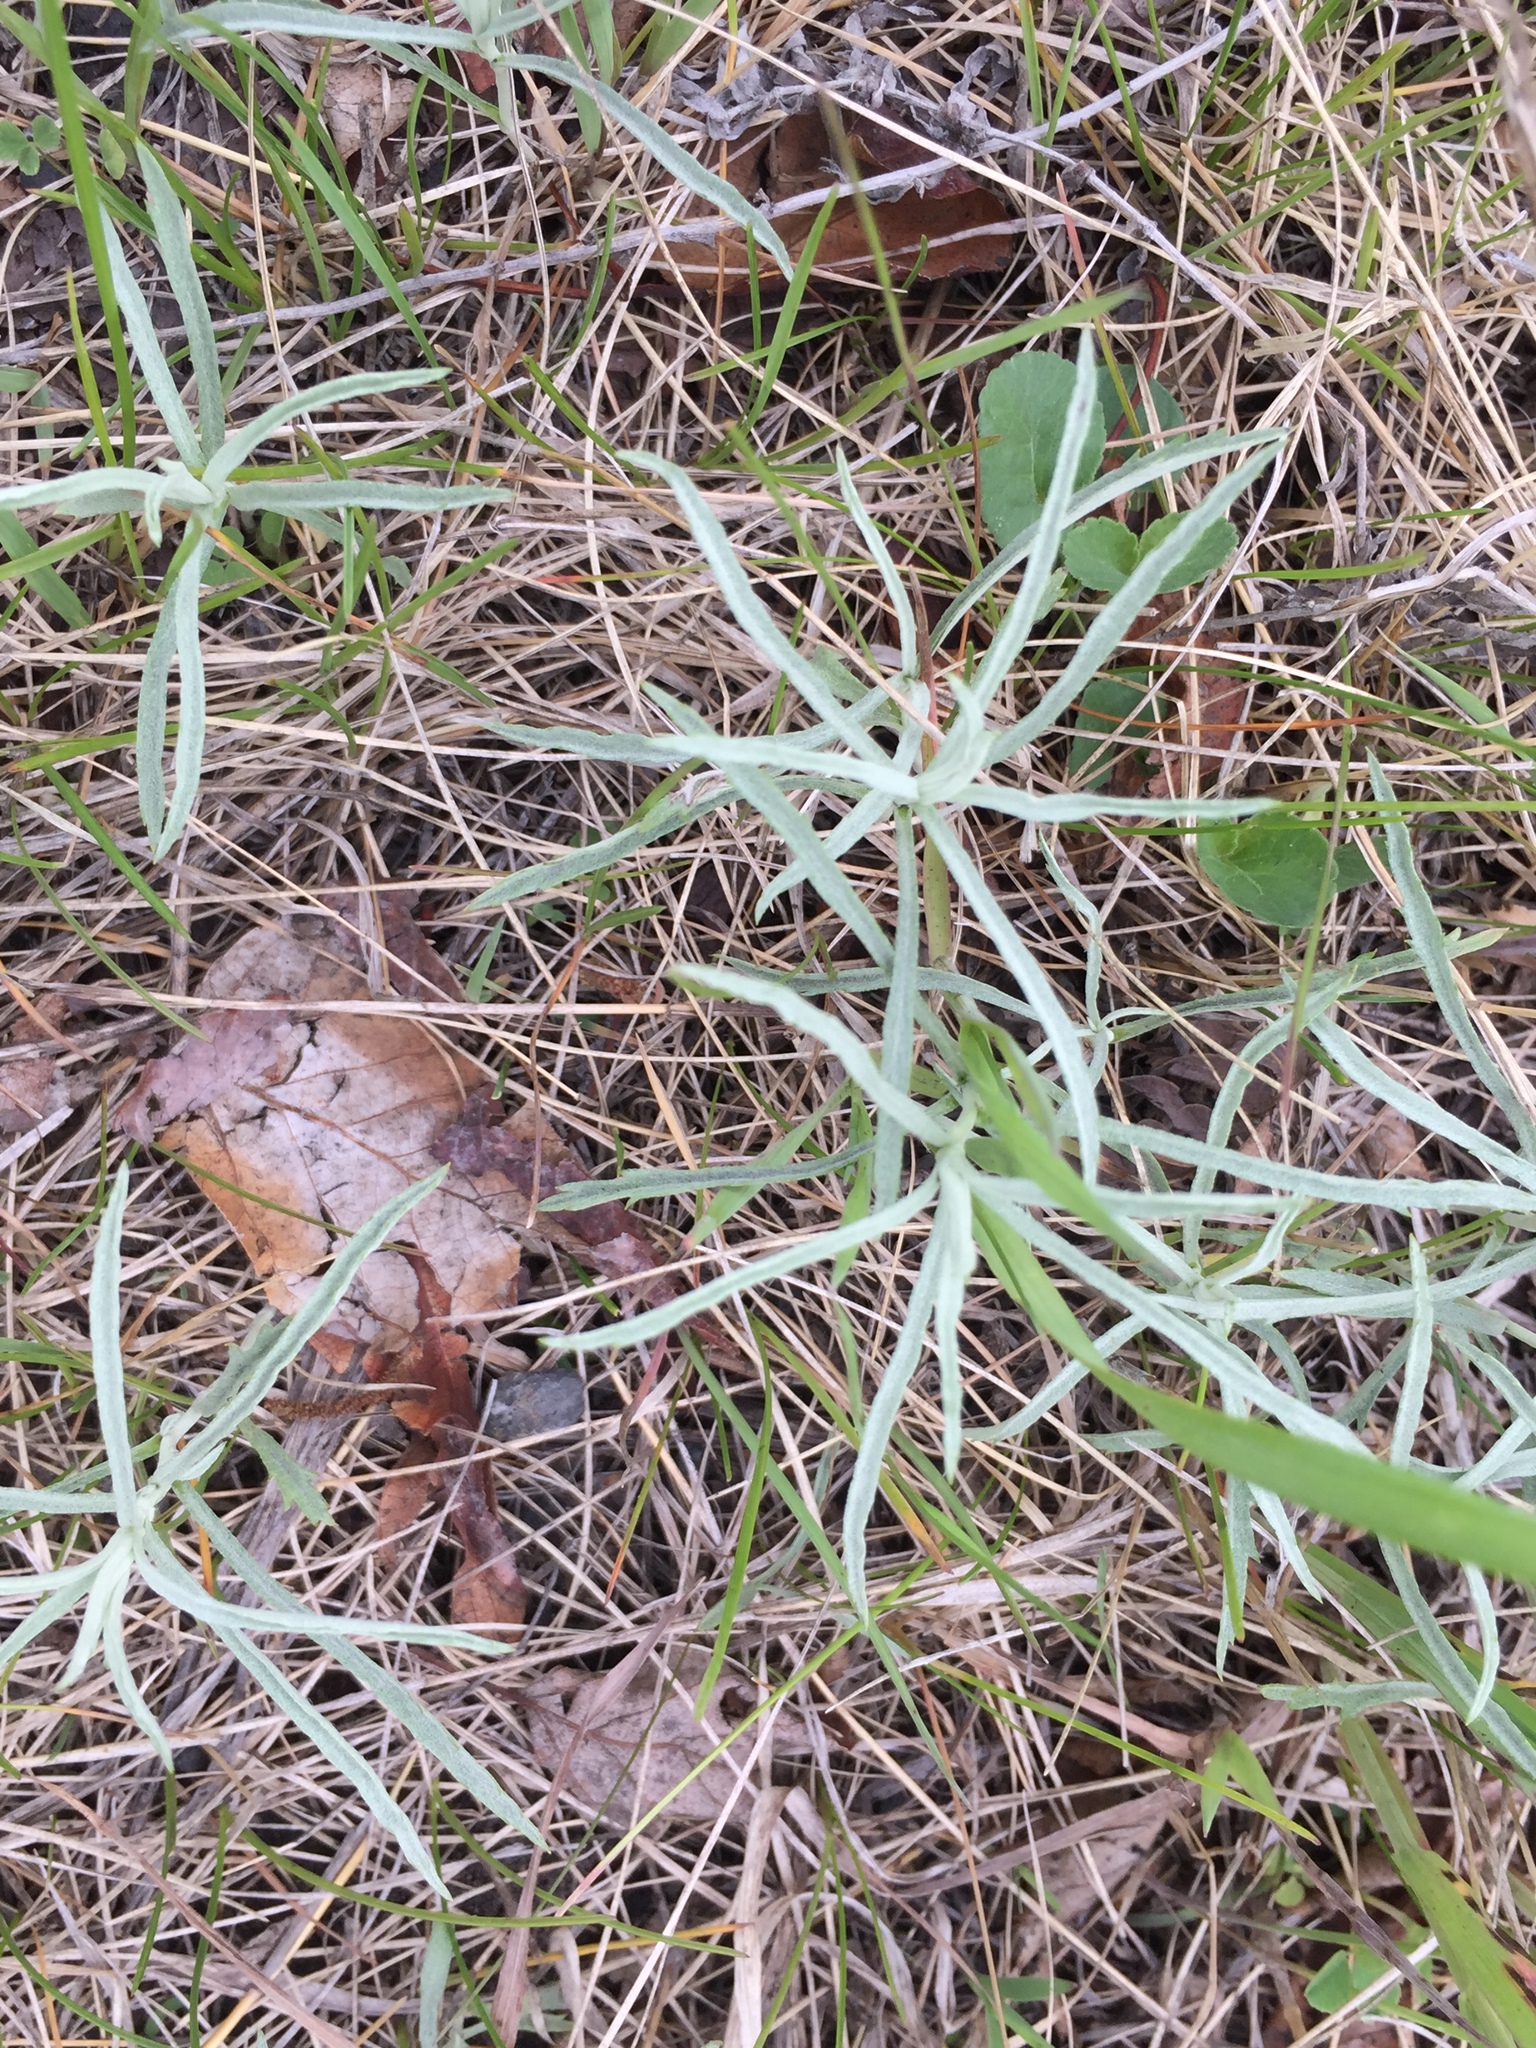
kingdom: Plantae
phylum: Tracheophyta
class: Magnoliopsida
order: Asterales
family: Asteraceae
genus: Artemisia
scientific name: Artemisia ludoviciana
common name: Western mugwort
